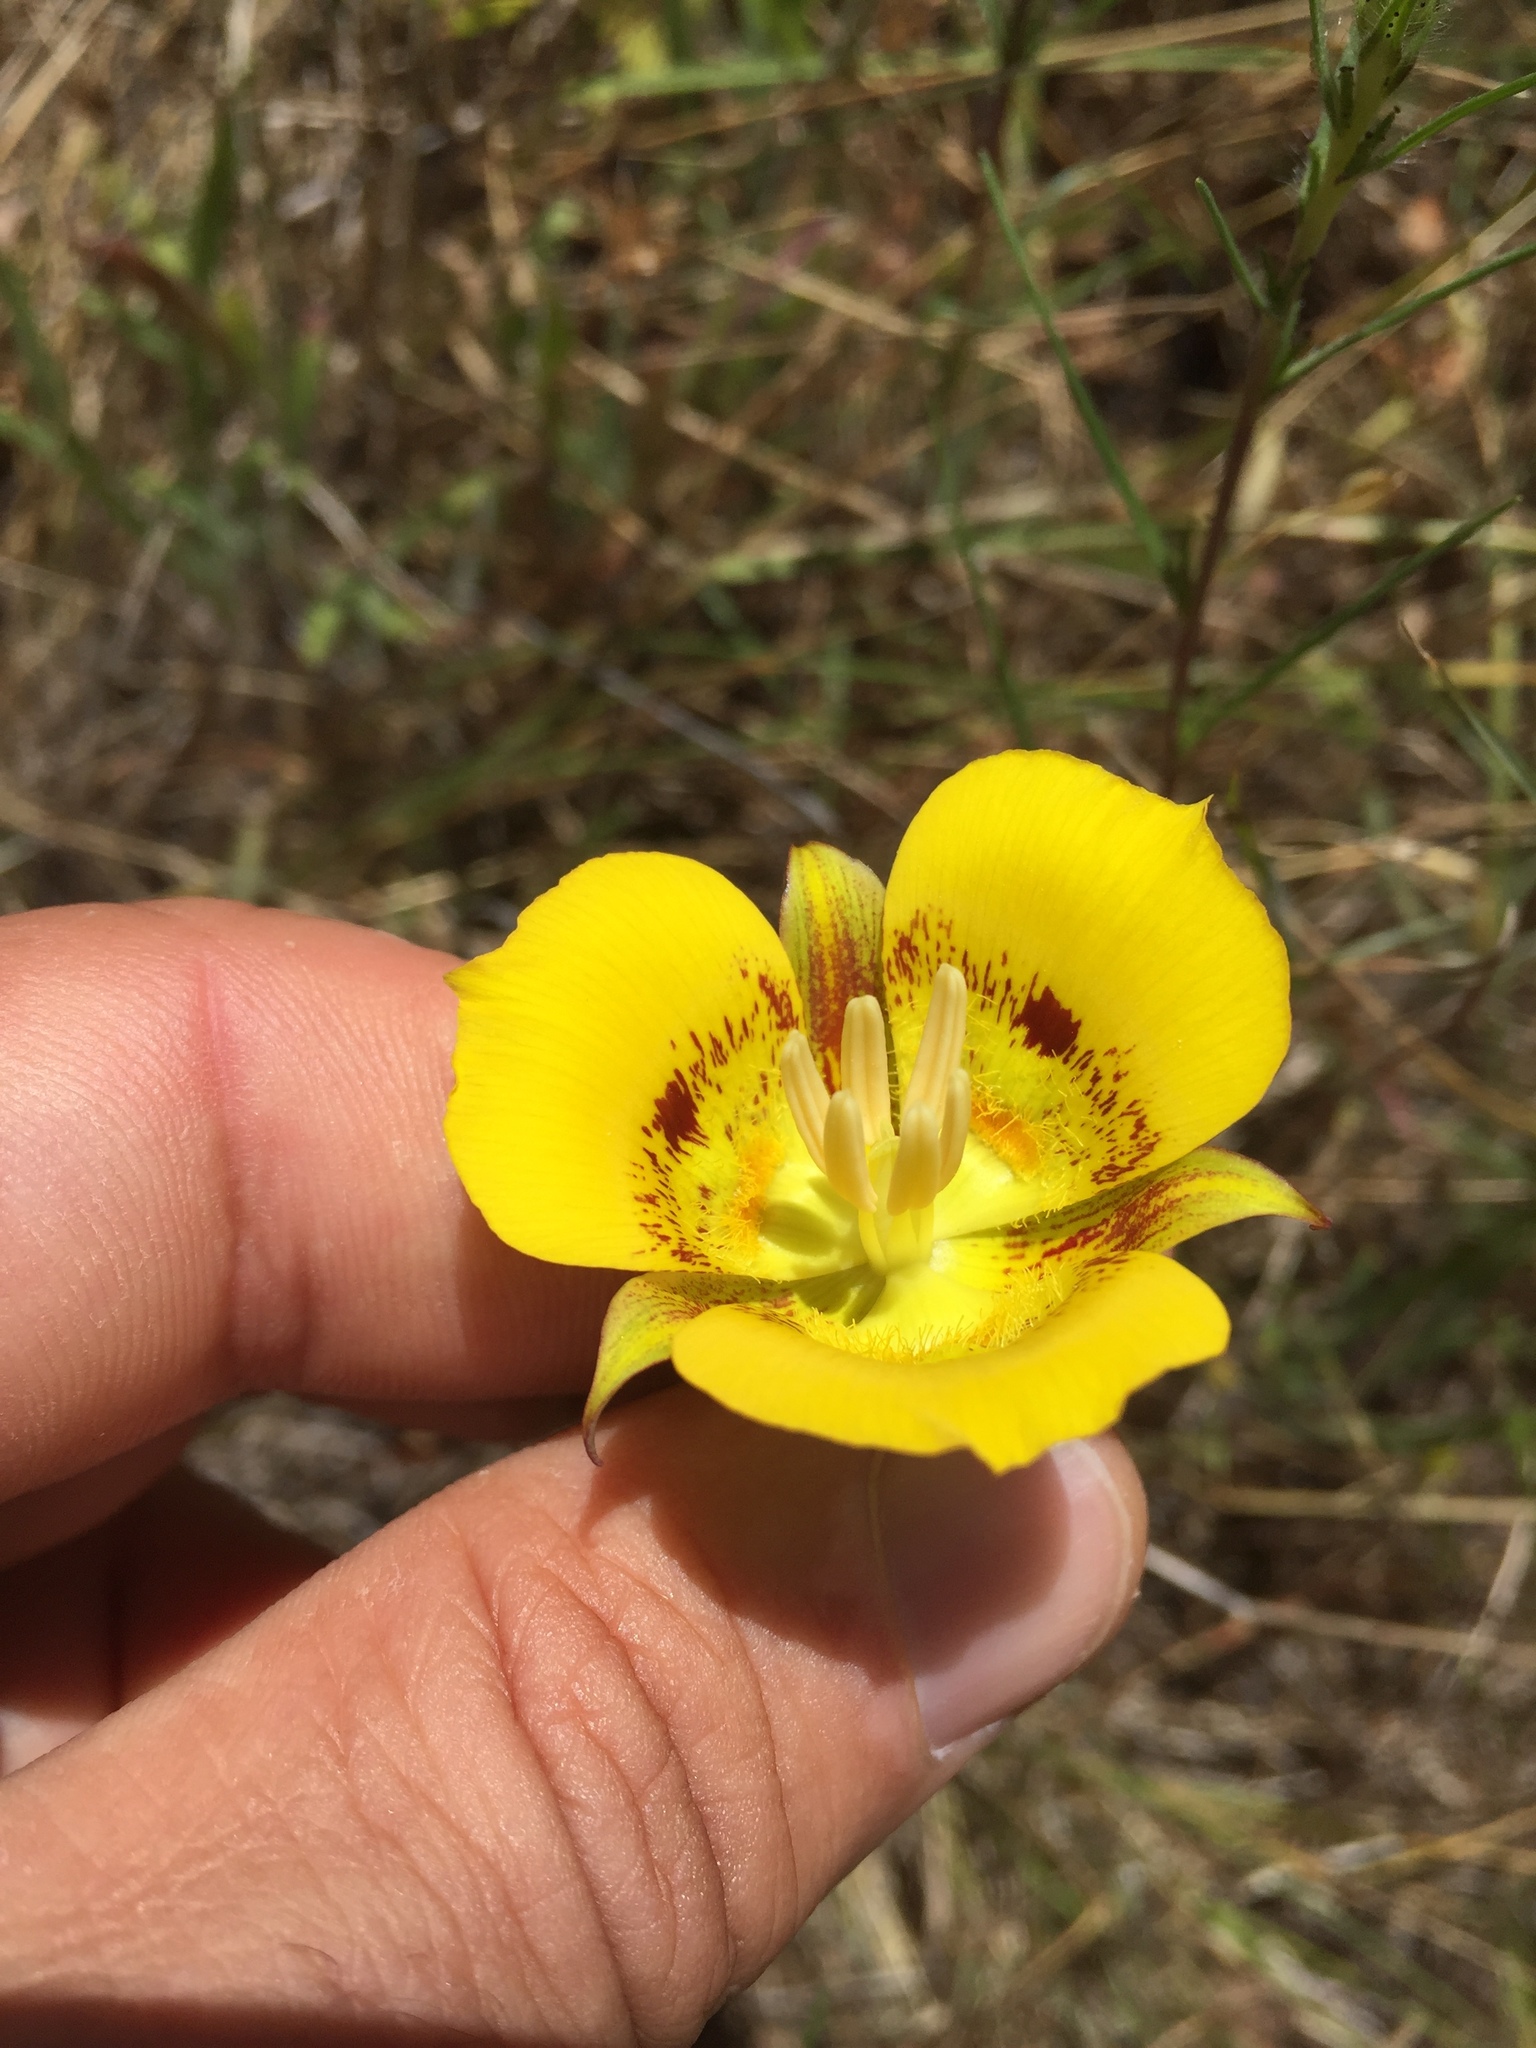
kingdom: Plantae
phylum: Tracheophyta
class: Liliopsida
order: Liliales
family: Liliaceae
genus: Calochortus
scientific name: Calochortus luteus
